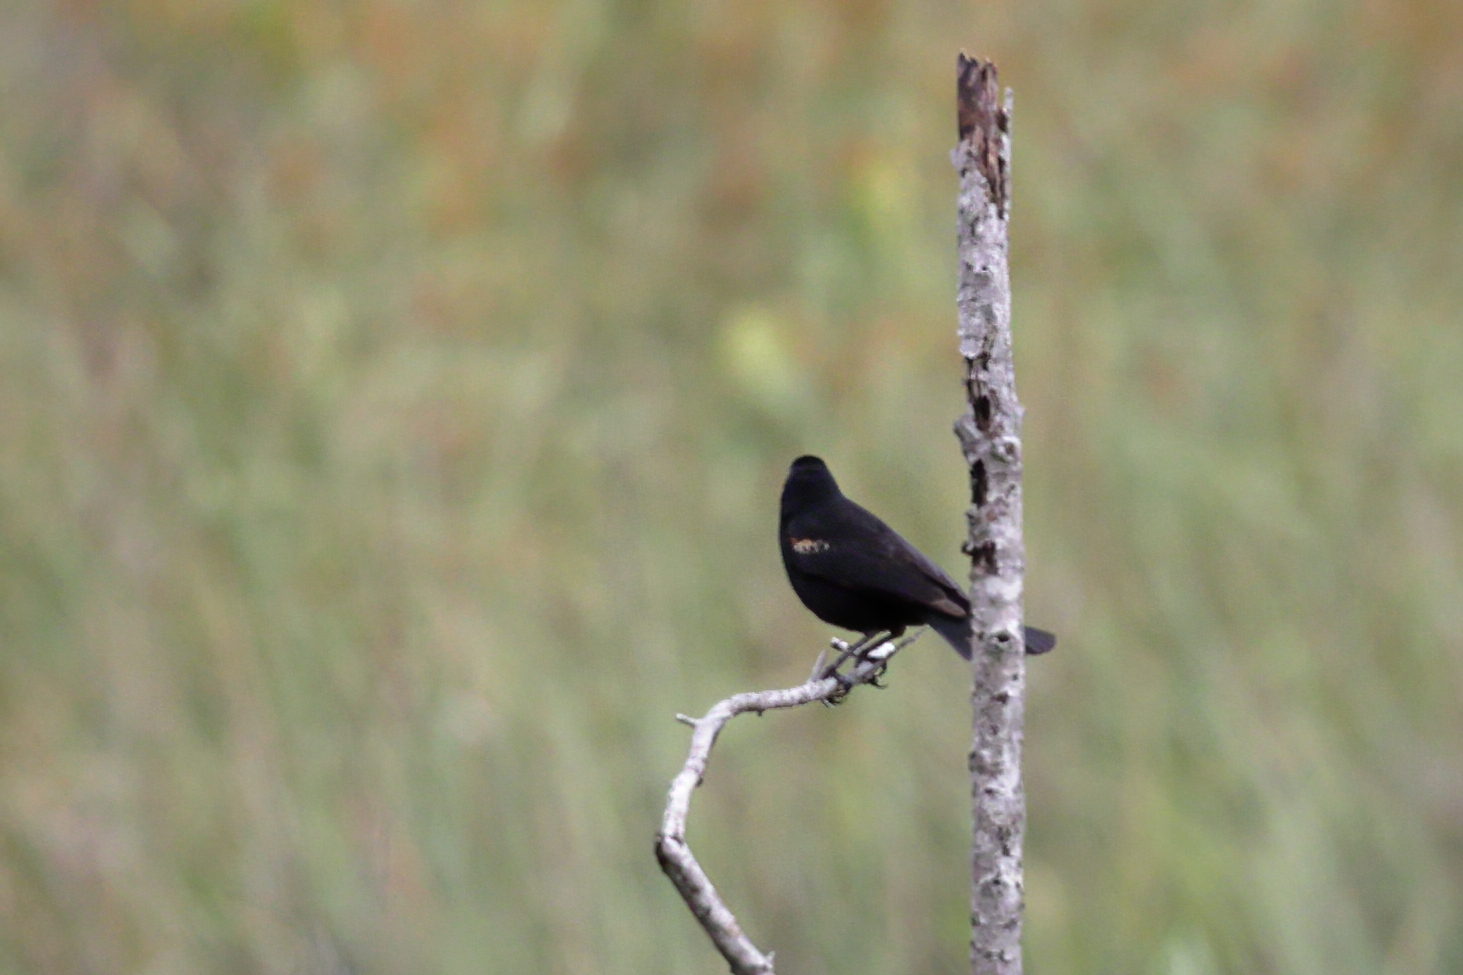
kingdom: Animalia
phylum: Chordata
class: Aves
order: Passeriformes
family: Icteridae
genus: Agelaius
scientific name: Agelaius phoeniceus
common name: Red-winged blackbird
